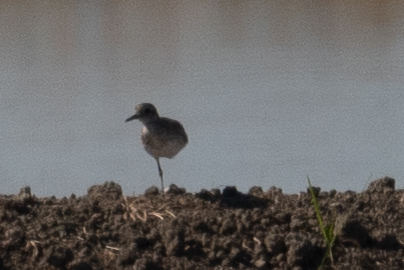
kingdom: Animalia
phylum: Chordata
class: Aves
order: Charadriiformes
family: Charadriidae
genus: Pluvialis
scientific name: Pluvialis squatarola
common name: Grey plover
